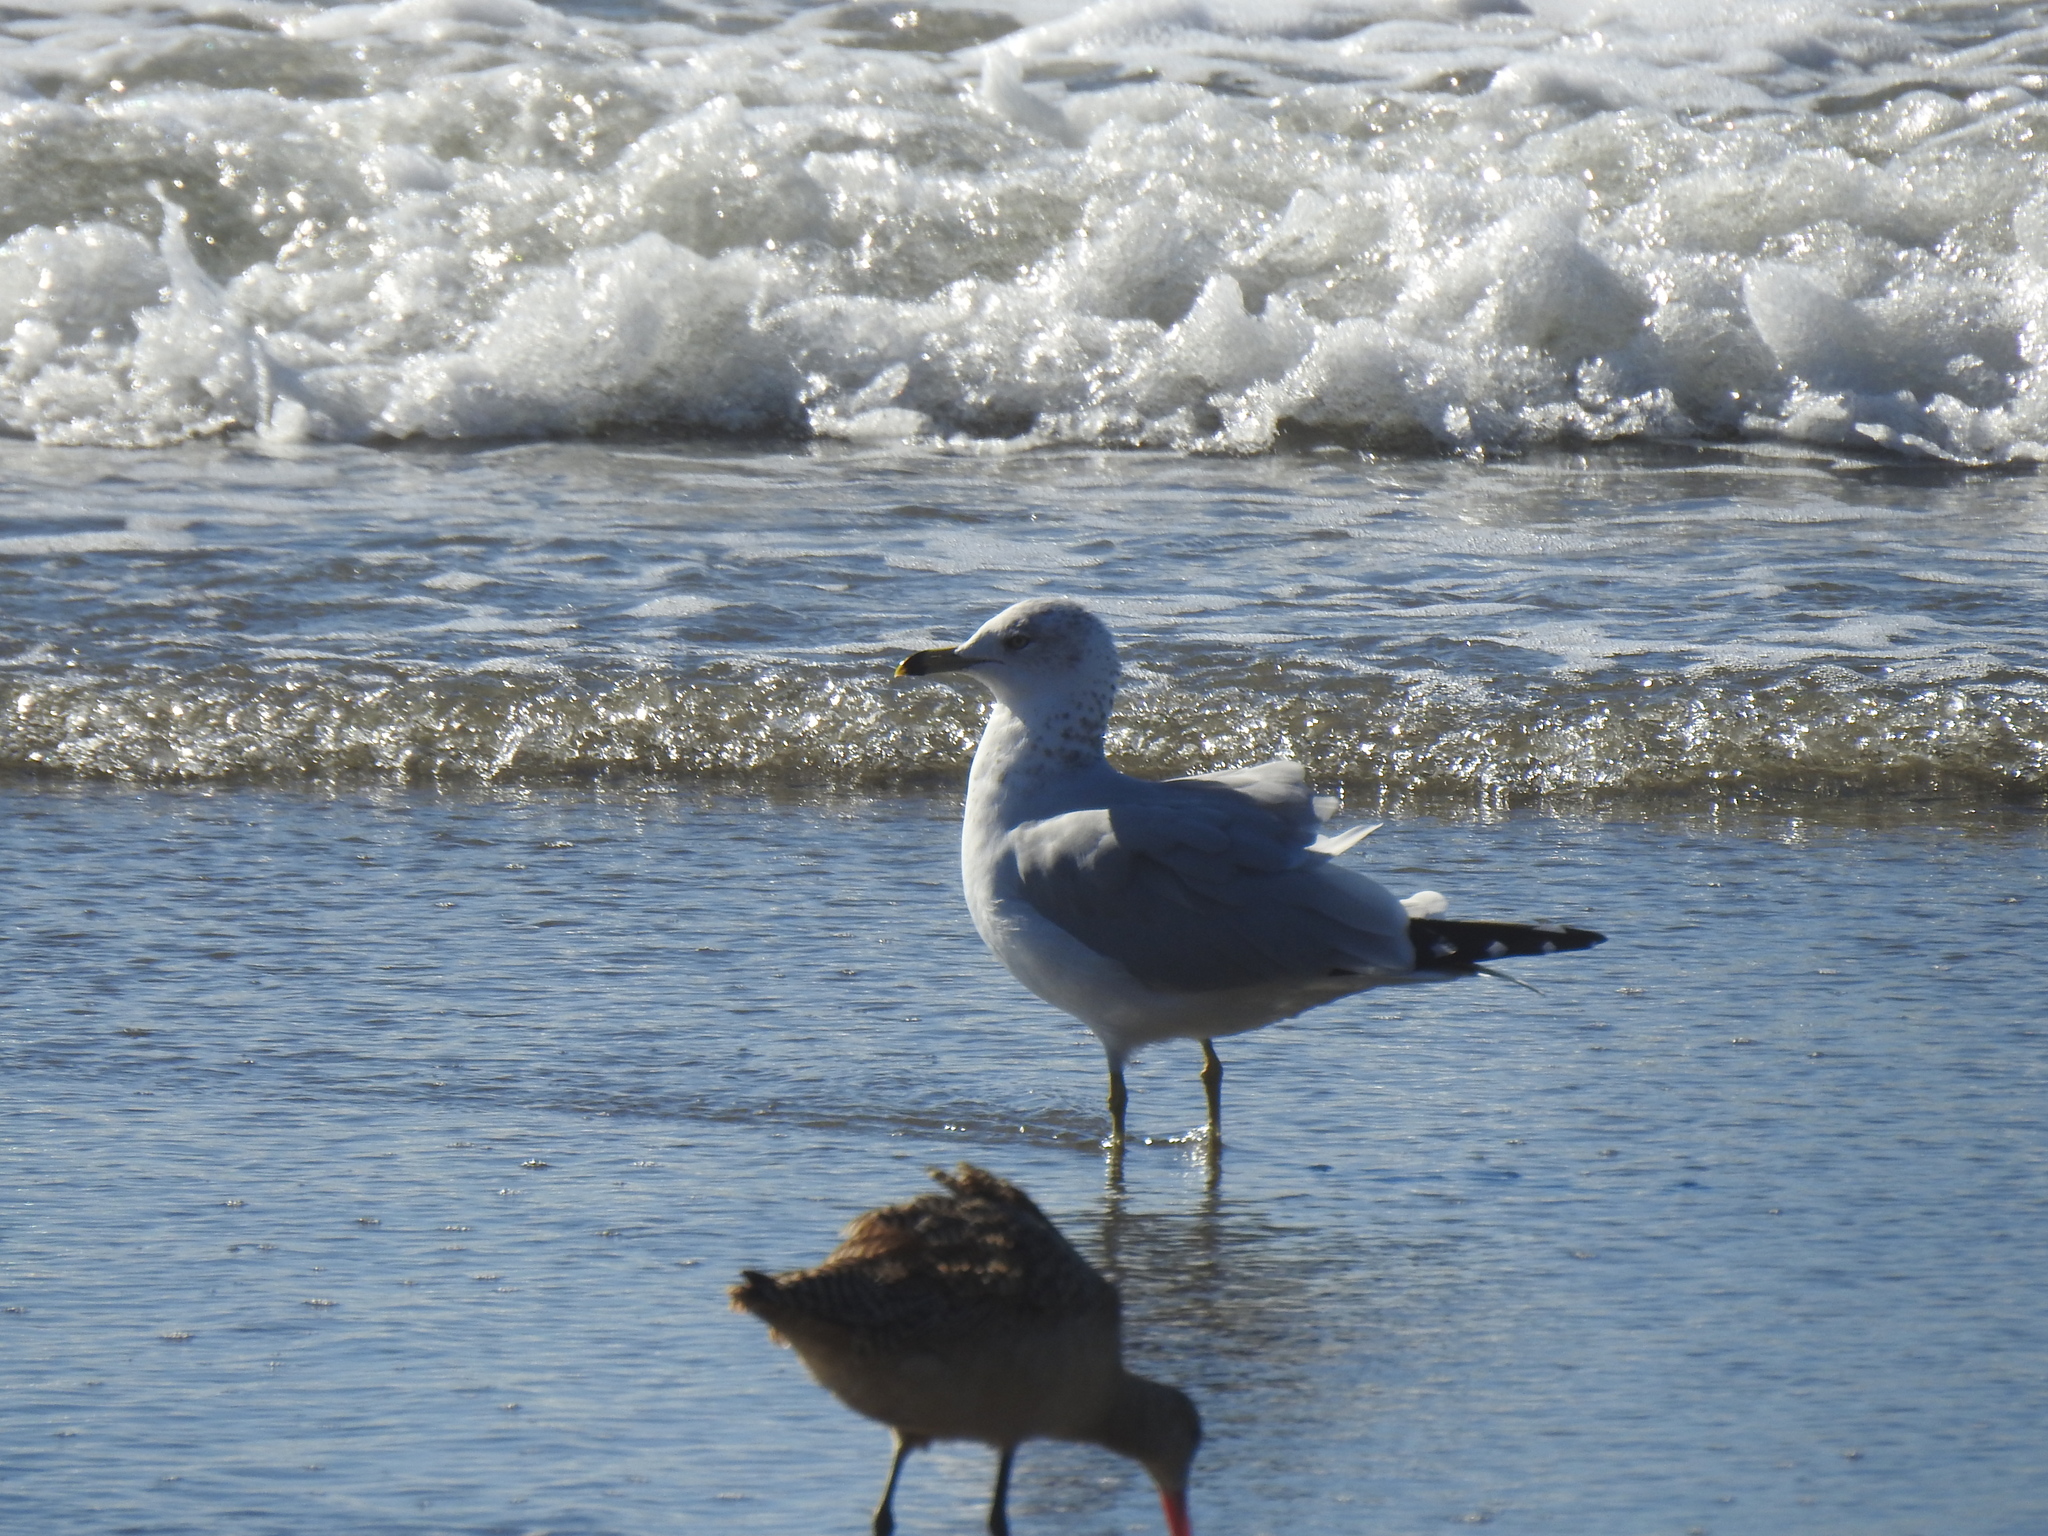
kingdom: Animalia
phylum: Chordata
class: Aves
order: Charadriiformes
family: Laridae
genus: Larus
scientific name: Larus delawarensis
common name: Ring-billed gull
